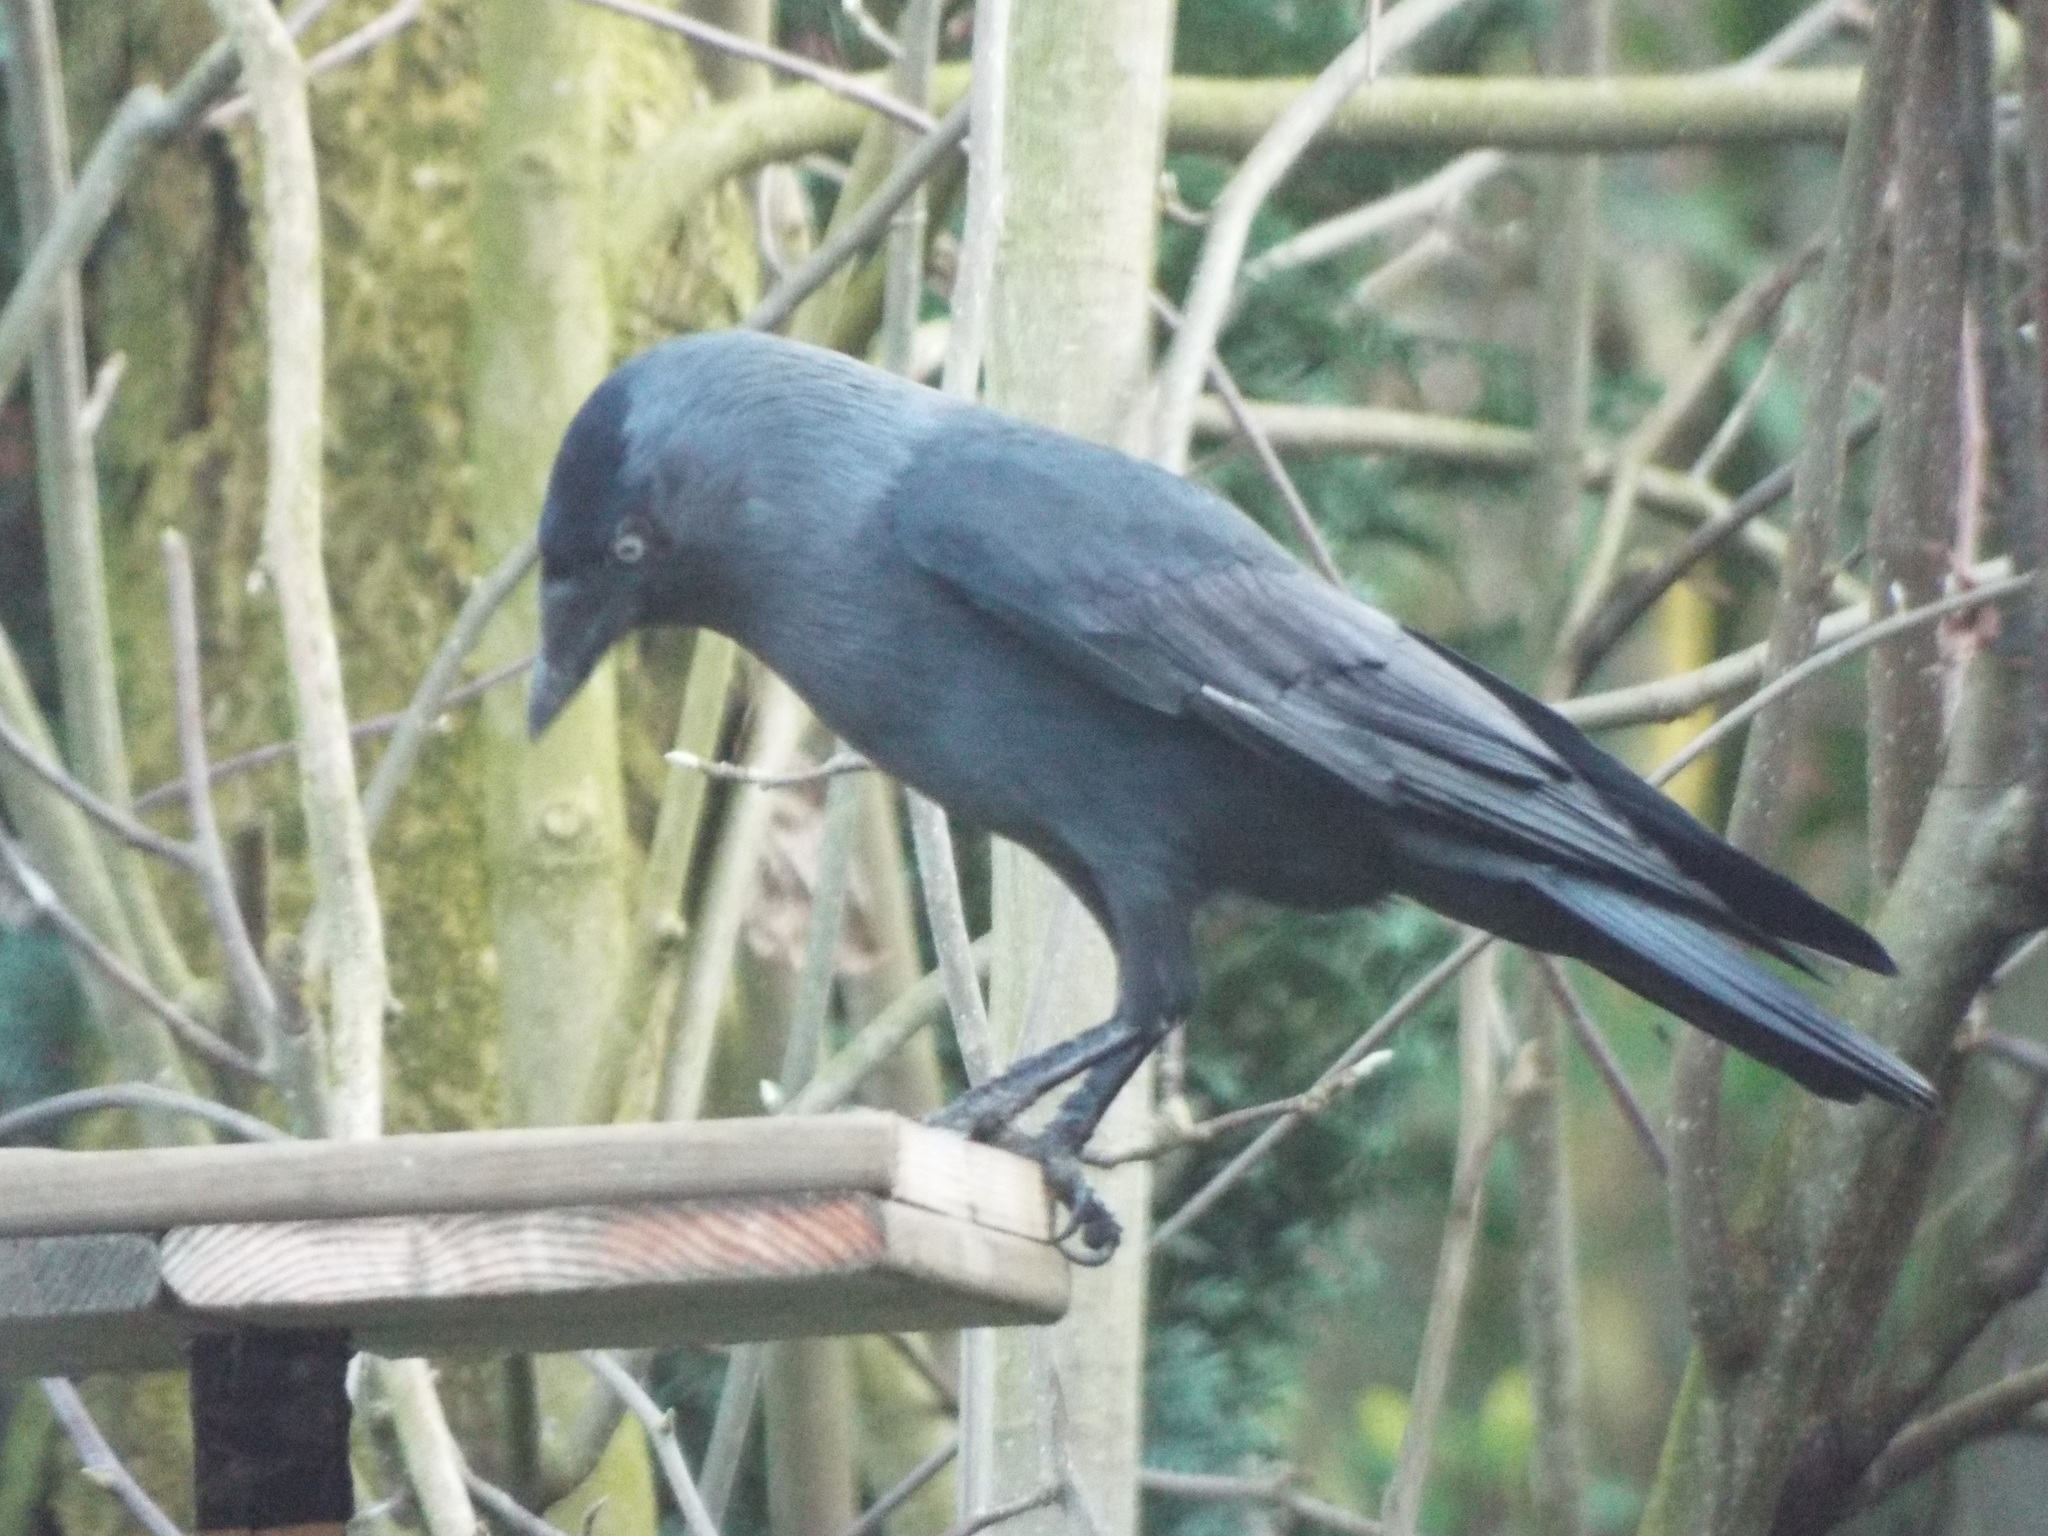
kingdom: Animalia
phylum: Chordata
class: Aves
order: Passeriformes
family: Corvidae
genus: Coloeus
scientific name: Coloeus monedula
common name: Western jackdaw
